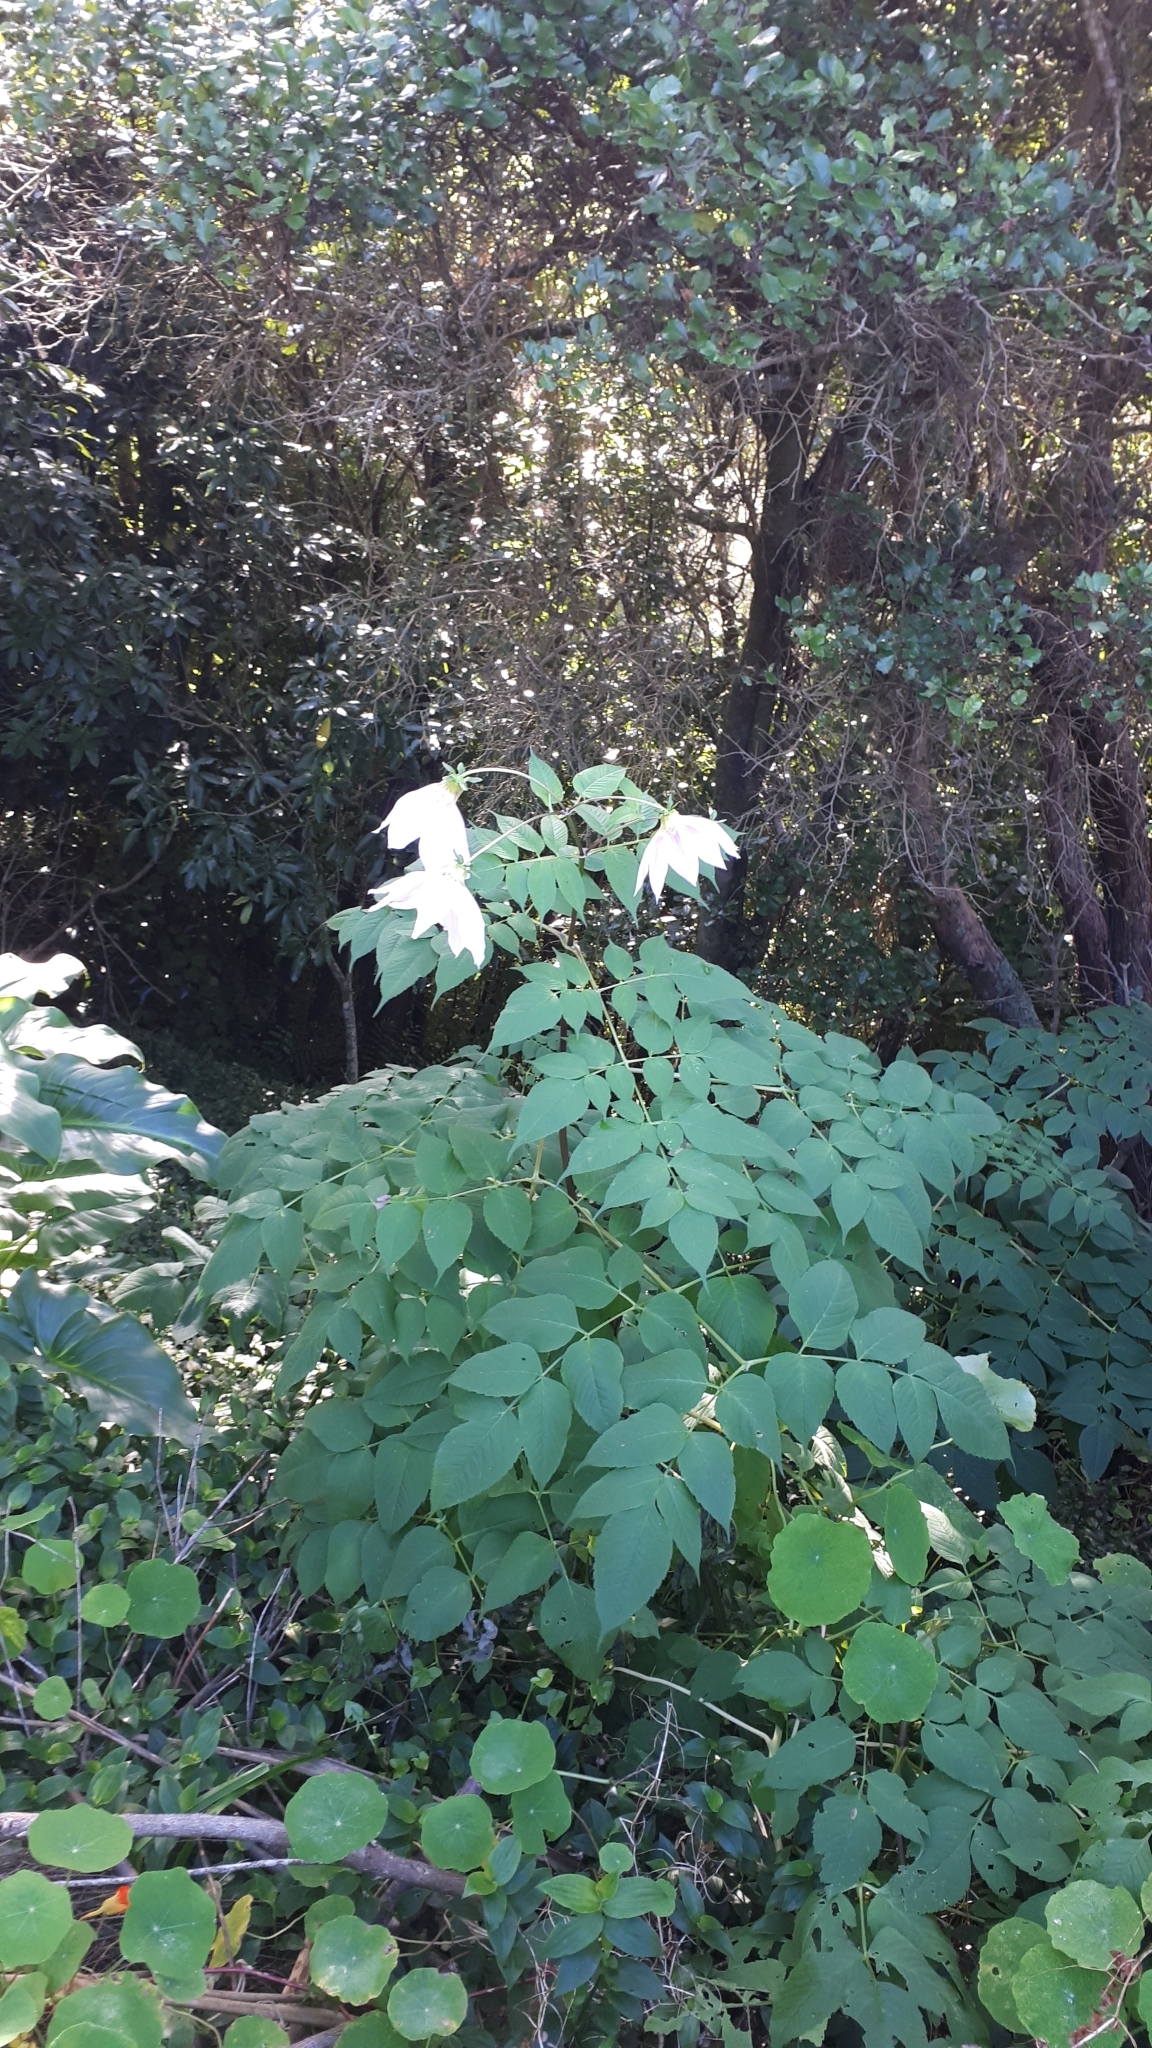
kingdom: Plantae
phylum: Tracheophyta
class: Magnoliopsida
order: Asterales
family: Asteraceae
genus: Dahlia
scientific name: Dahlia imperialis
